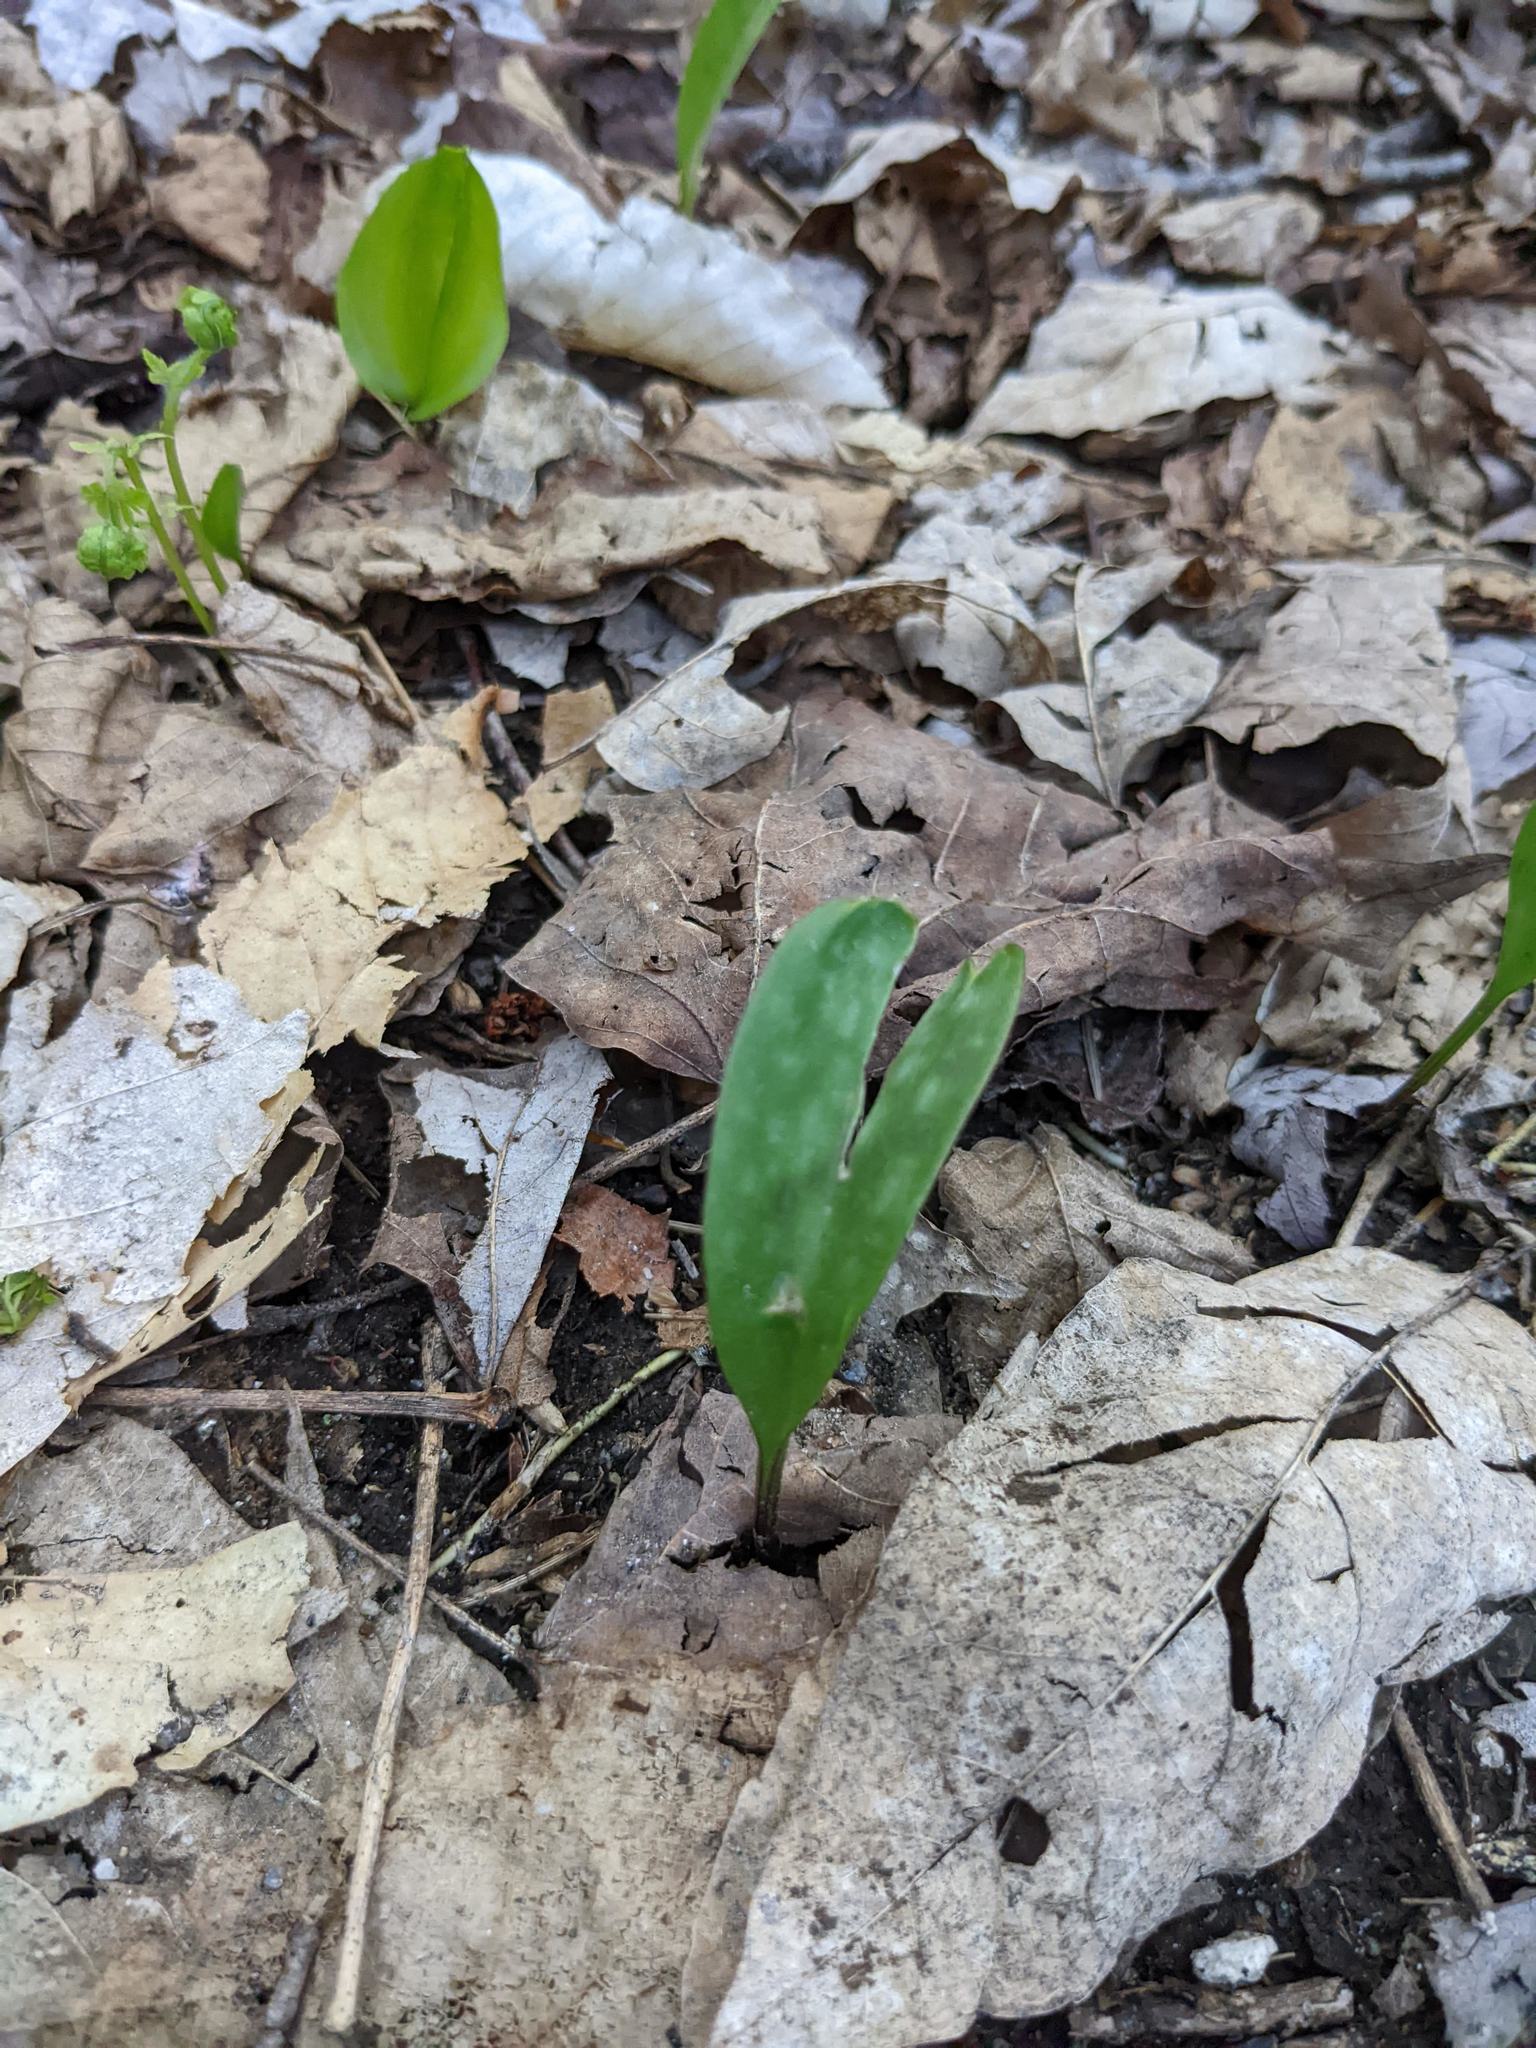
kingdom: Plantae
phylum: Tracheophyta
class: Liliopsida
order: Liliales
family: Liliaceae
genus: Erythronium
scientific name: Erythronium americanum
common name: Yellow adder's-tongue
